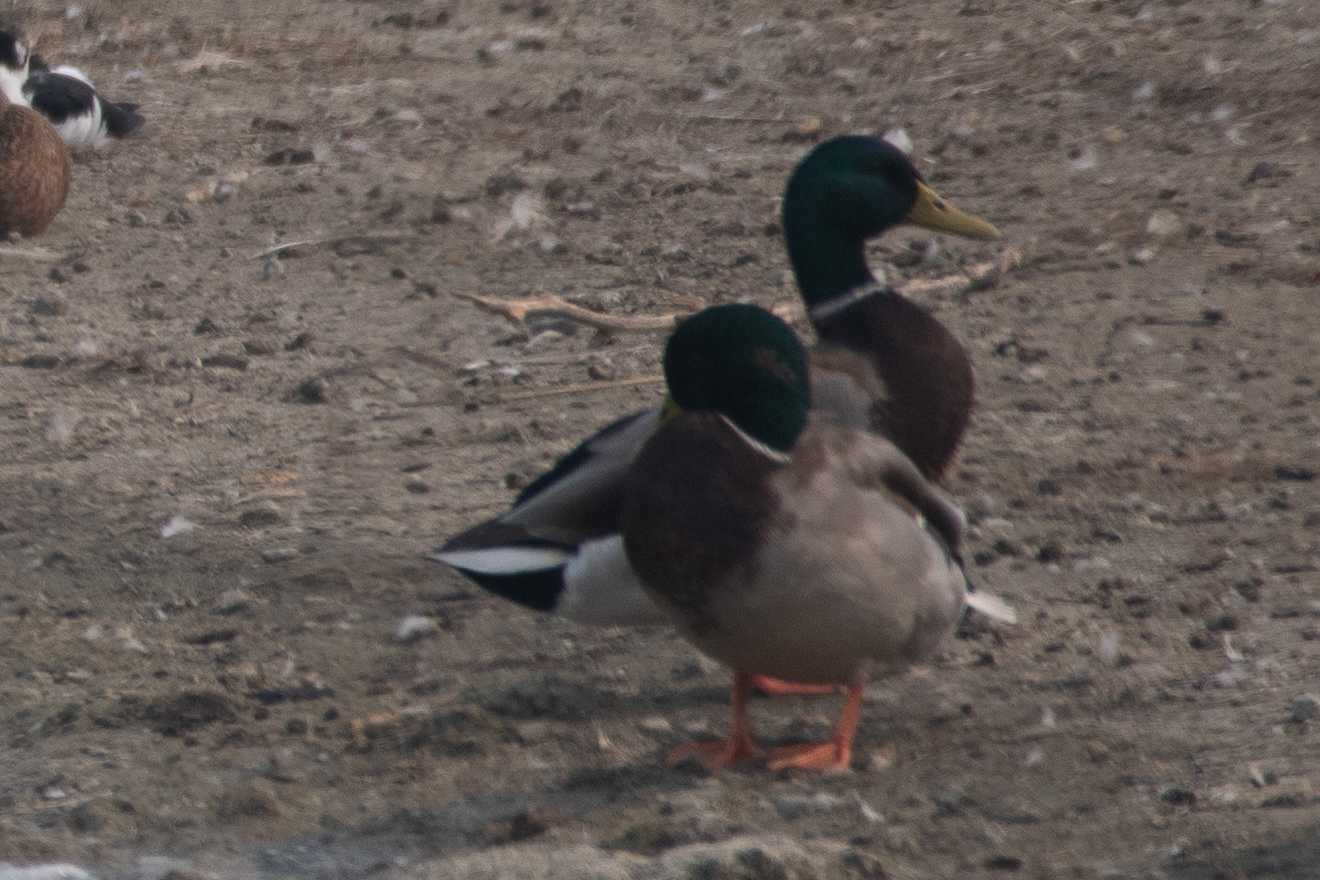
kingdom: Animalia
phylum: Chordata
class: Aves
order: Anseriformes
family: Anatidae
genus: Anas
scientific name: Anas platyrhynchos
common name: Mallard
